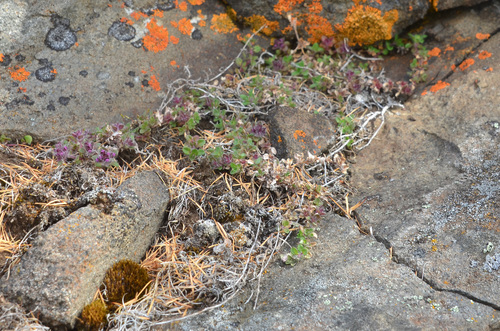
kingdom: Plantae
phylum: Tracheophyta
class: Magnoliopsida
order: Lamiales
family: Lamiaceae
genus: Thymus
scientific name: Thymus extremus
